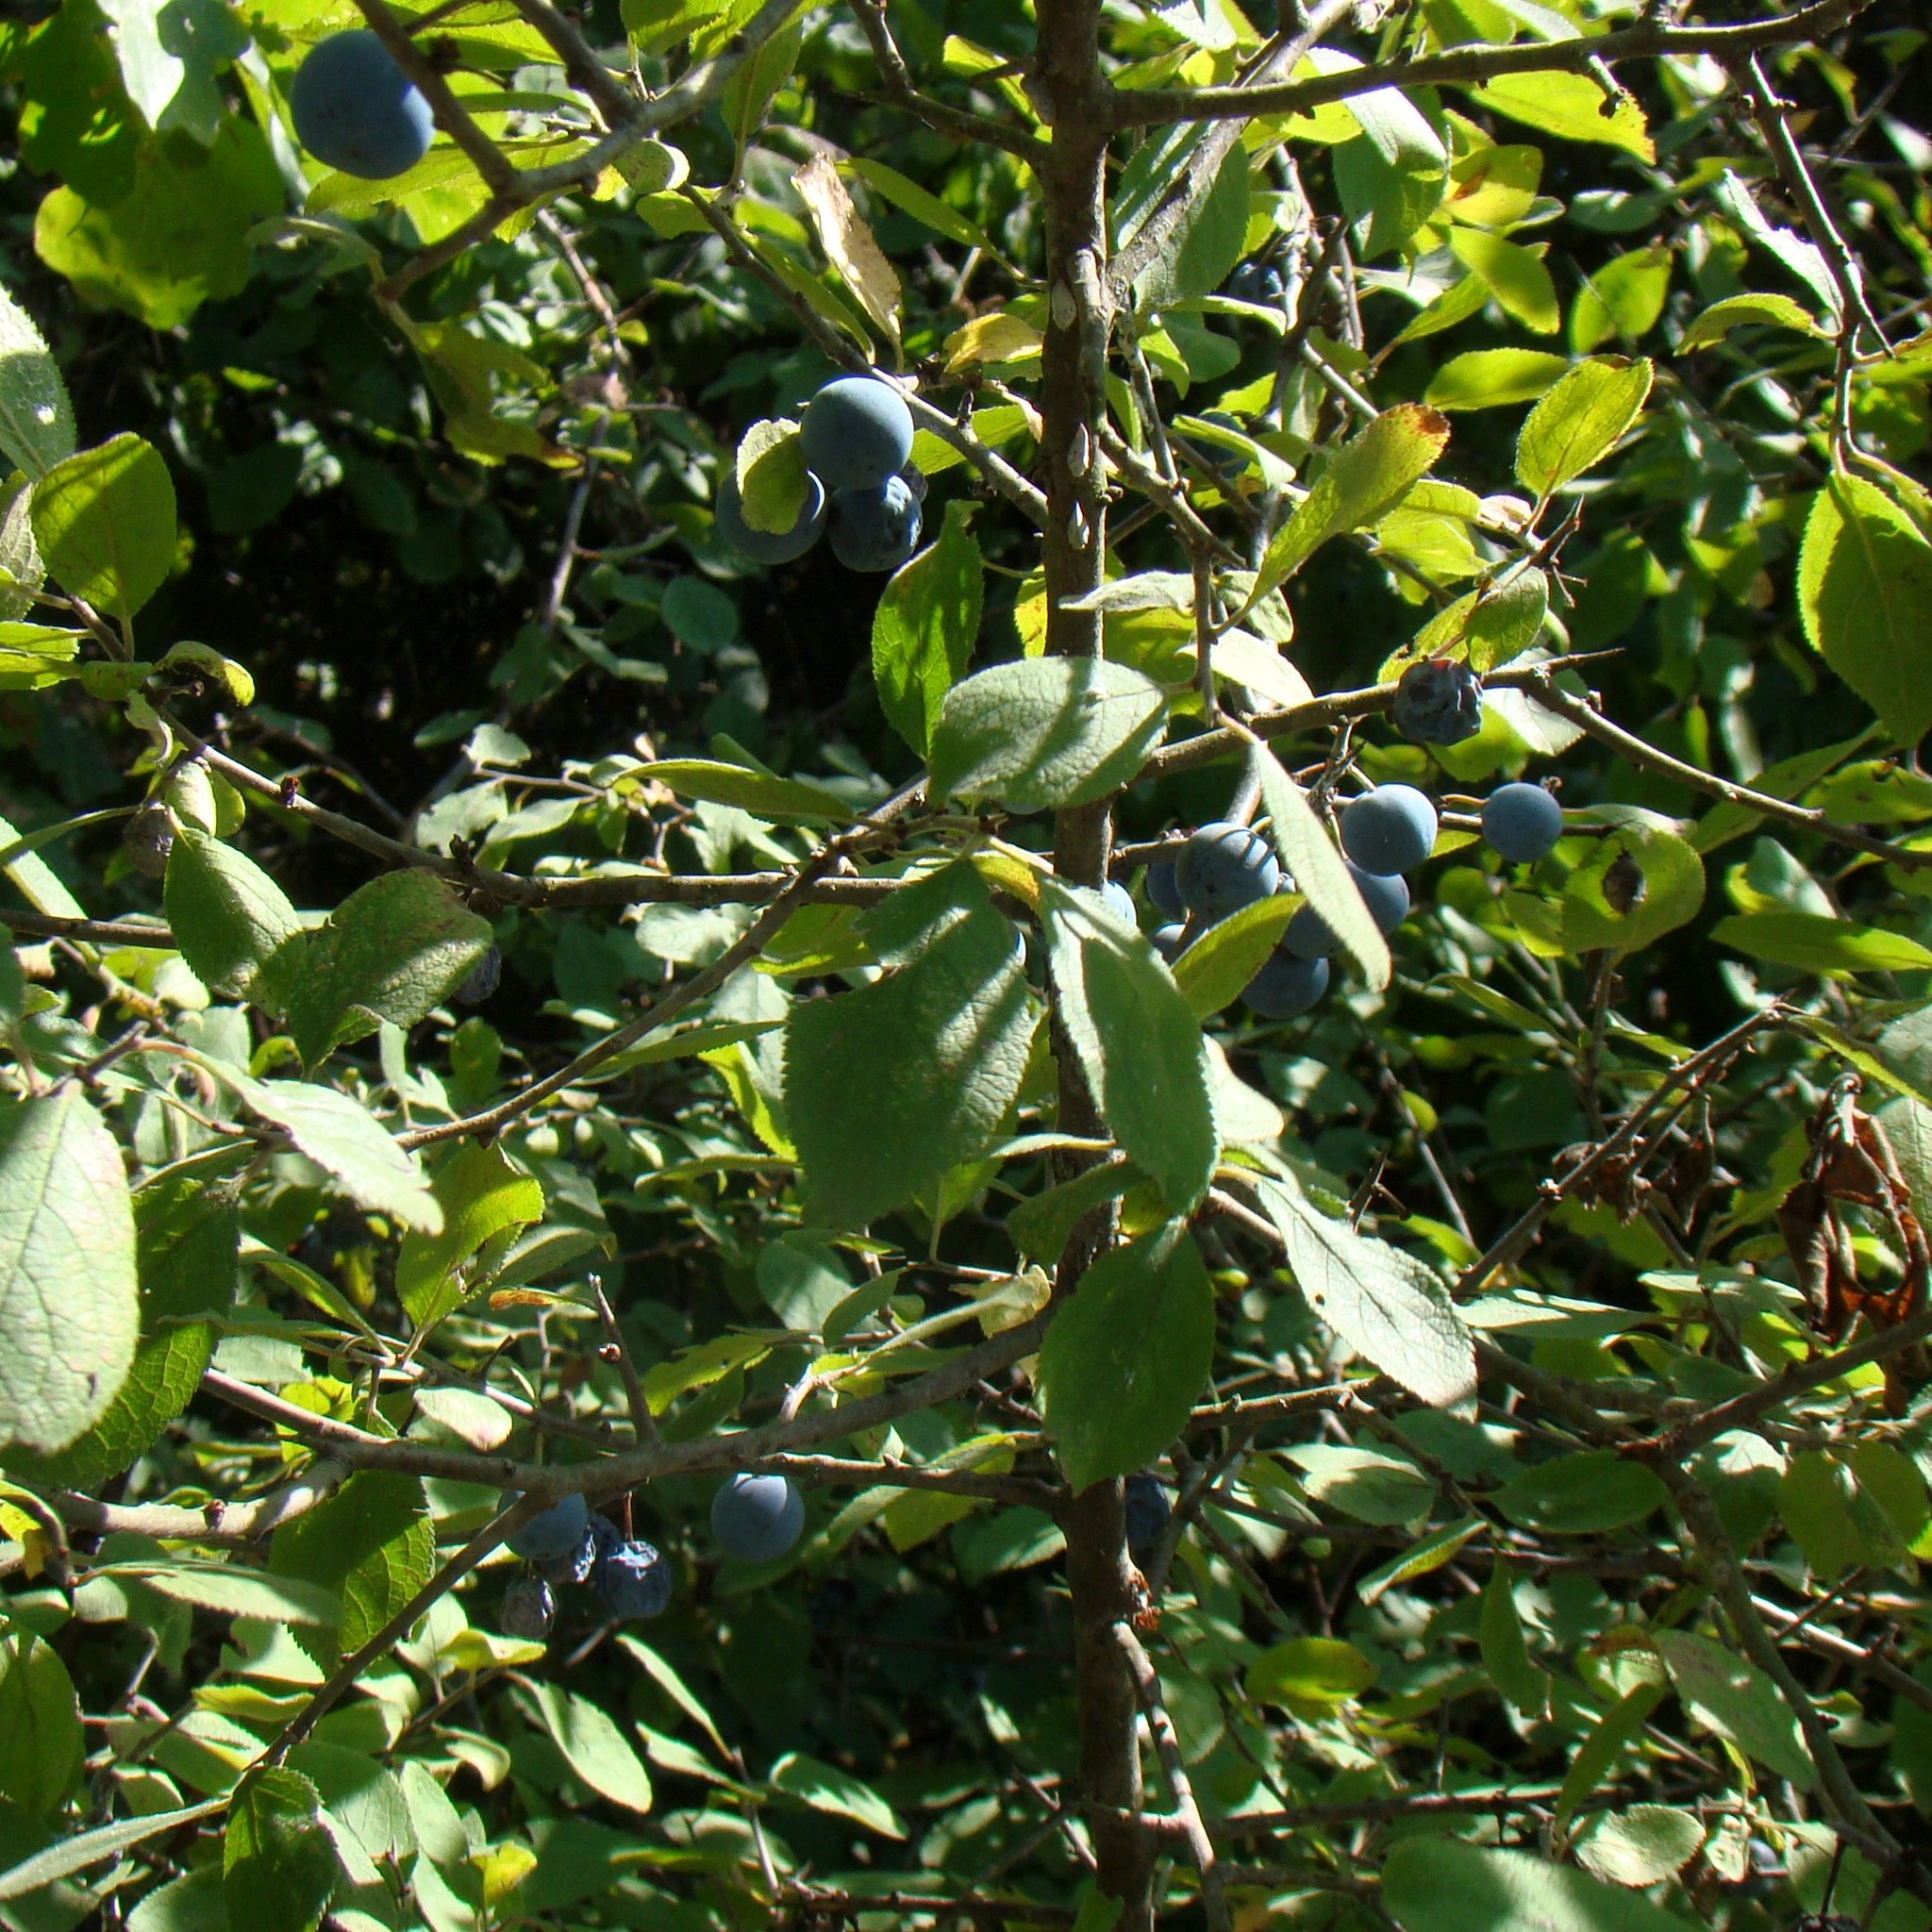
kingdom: Plantae
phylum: Tracheophyta
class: Magnoliopsida
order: Rosales
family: Rosaceae
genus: Prunus
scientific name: Prunus spinosa
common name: Blackthorn
